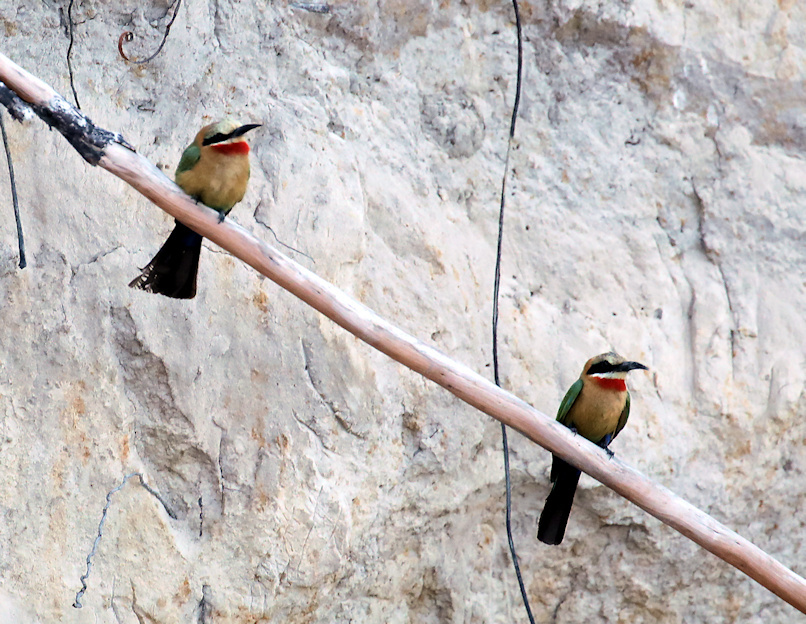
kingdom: Animalia
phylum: Chordata
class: Aves
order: Coraciiformes
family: Meropidae
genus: Merops
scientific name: Merops bullockoides
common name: White-fronted bee-eater
